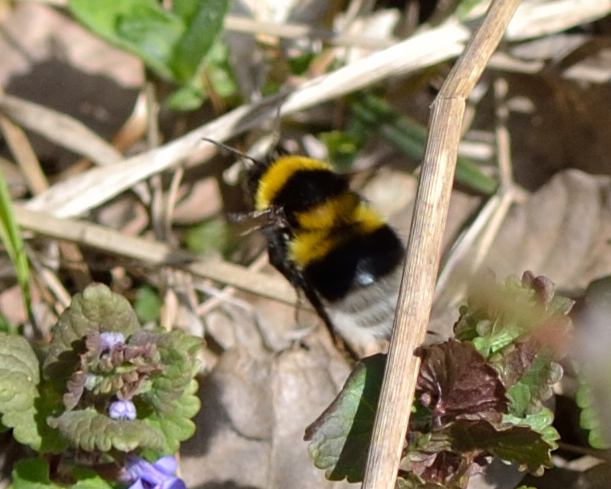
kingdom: Animalia
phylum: Arthropoda
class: Insecta
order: Hymenoptera
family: Apidae
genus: Bombus
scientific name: Bombus hortorum
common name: Garden bumblebee
